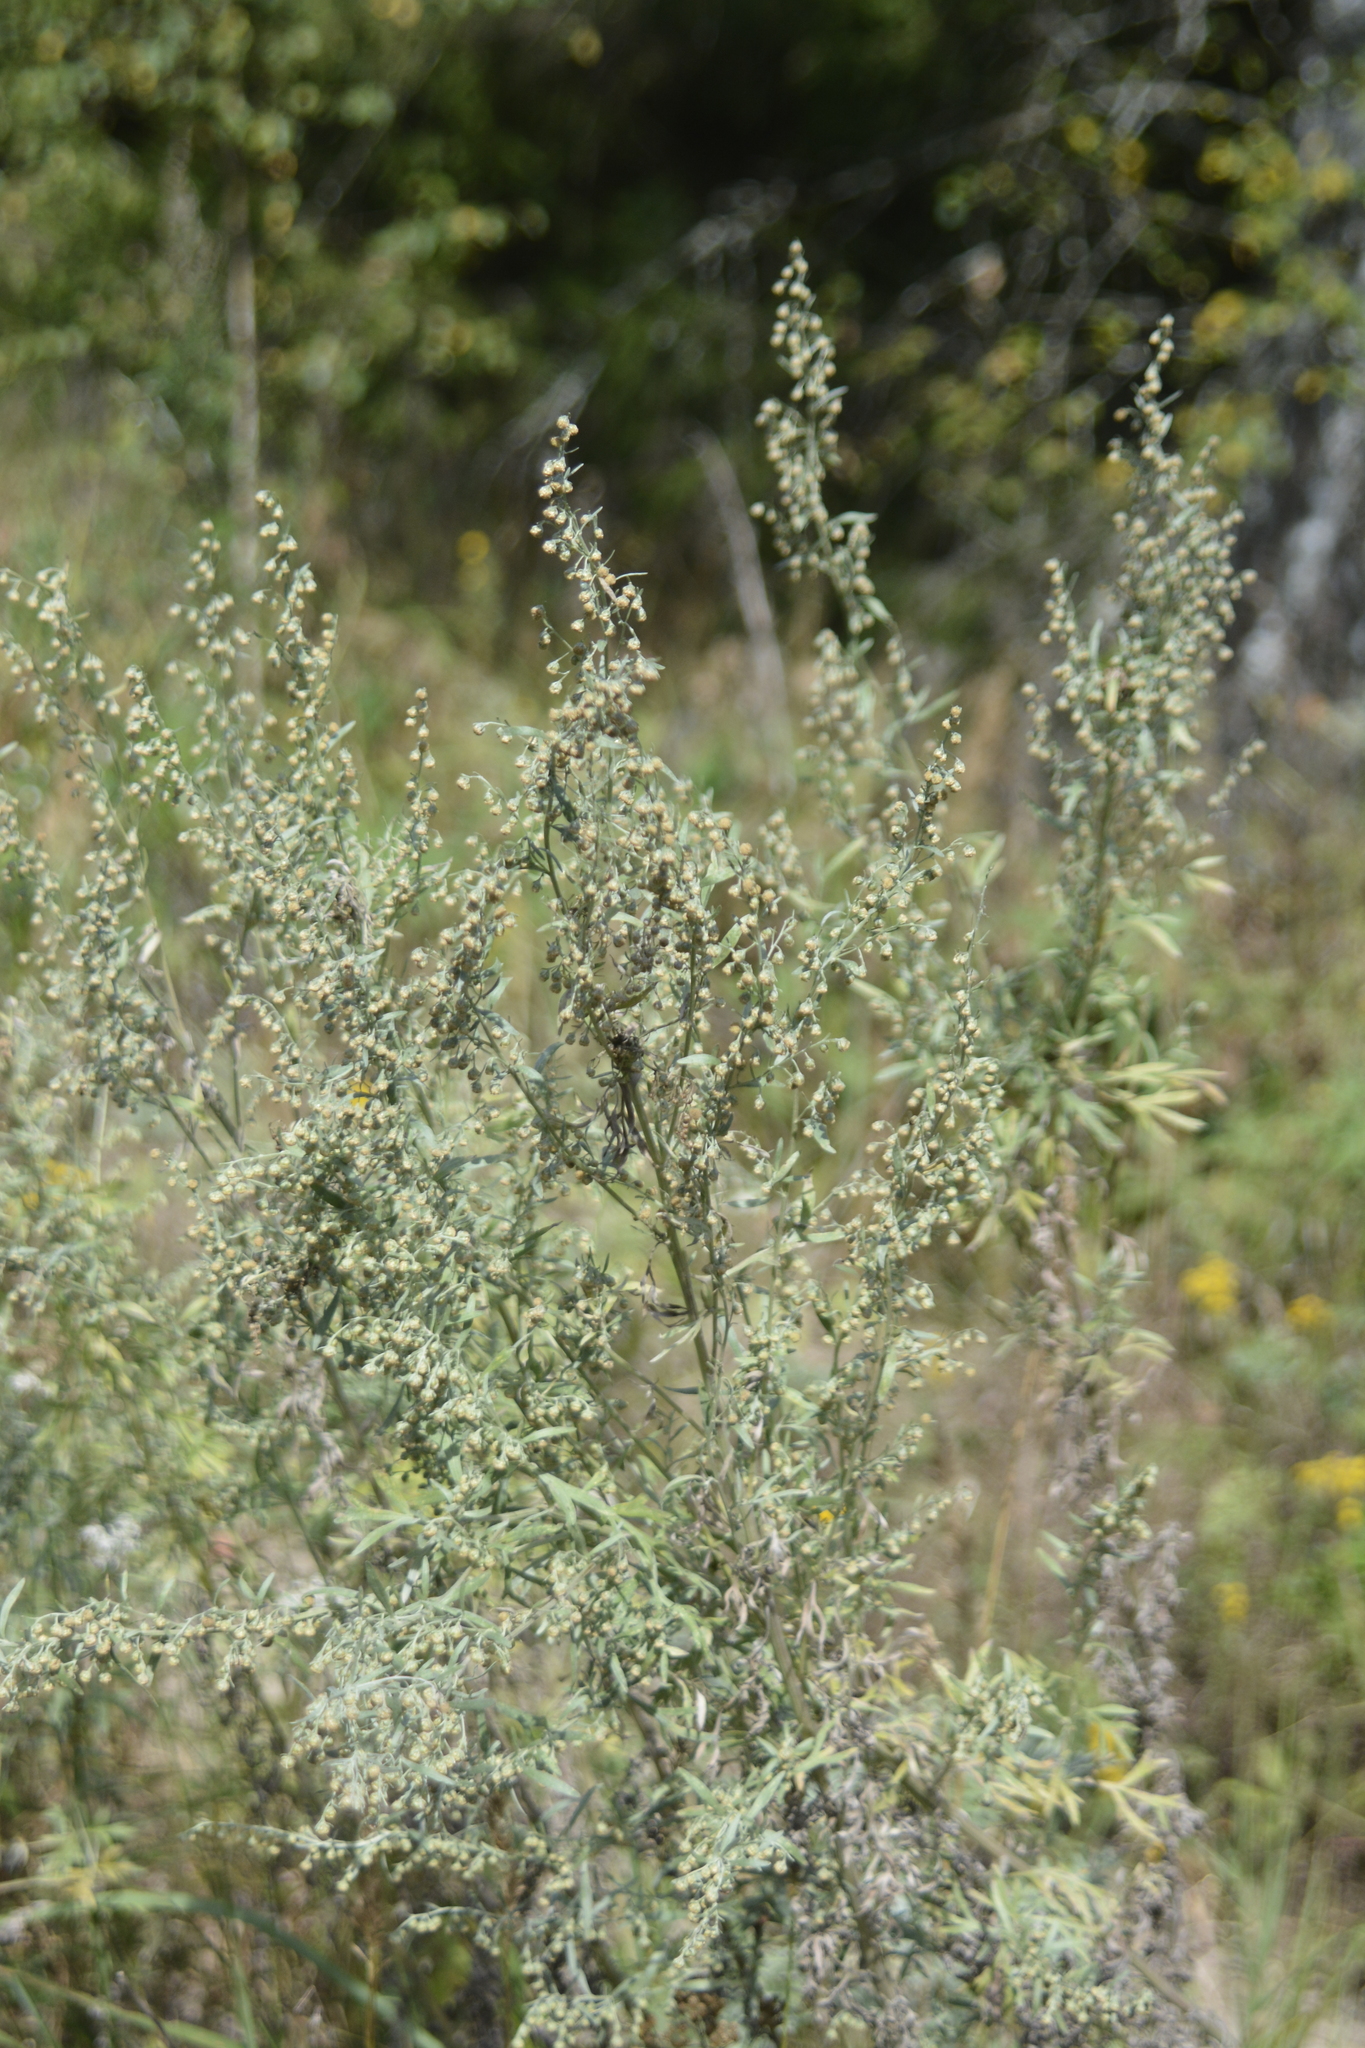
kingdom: Plantae
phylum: Tracheophyta
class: Magnoliopsida
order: Asterales
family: Asteraceae
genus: Artemisia
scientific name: Artemisia absinthium
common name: Wormwood
